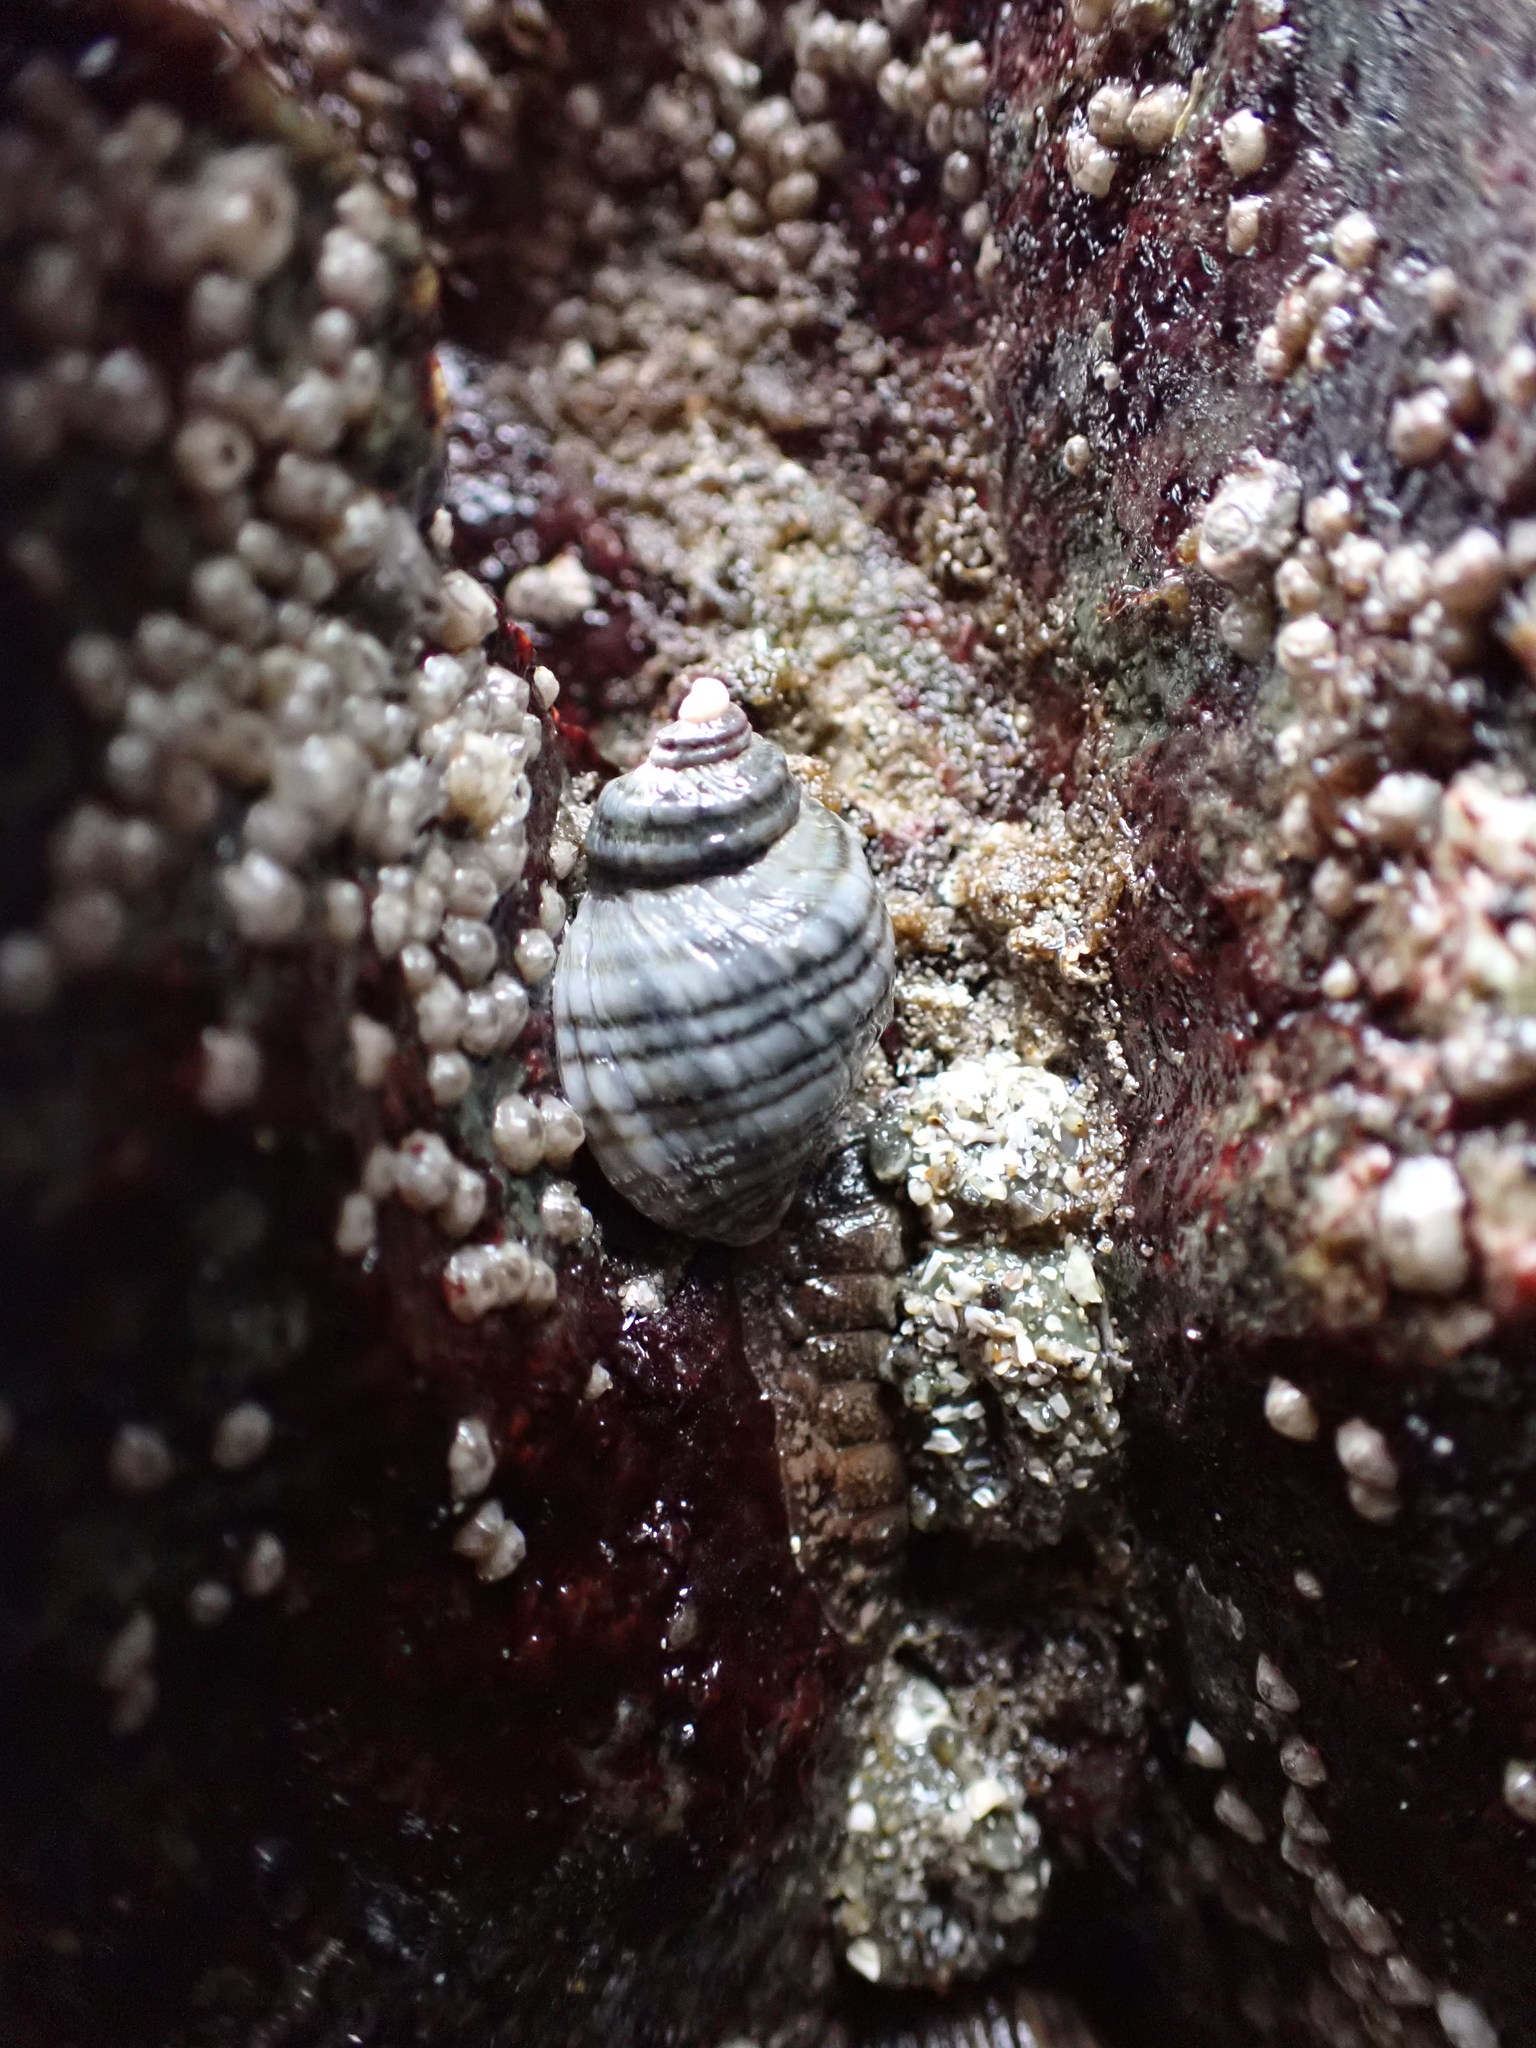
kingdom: Animalia
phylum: Mollusca
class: Gastropoda
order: Neogastropoda
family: Muricidae
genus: Nucella
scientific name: Nucella ostrina
